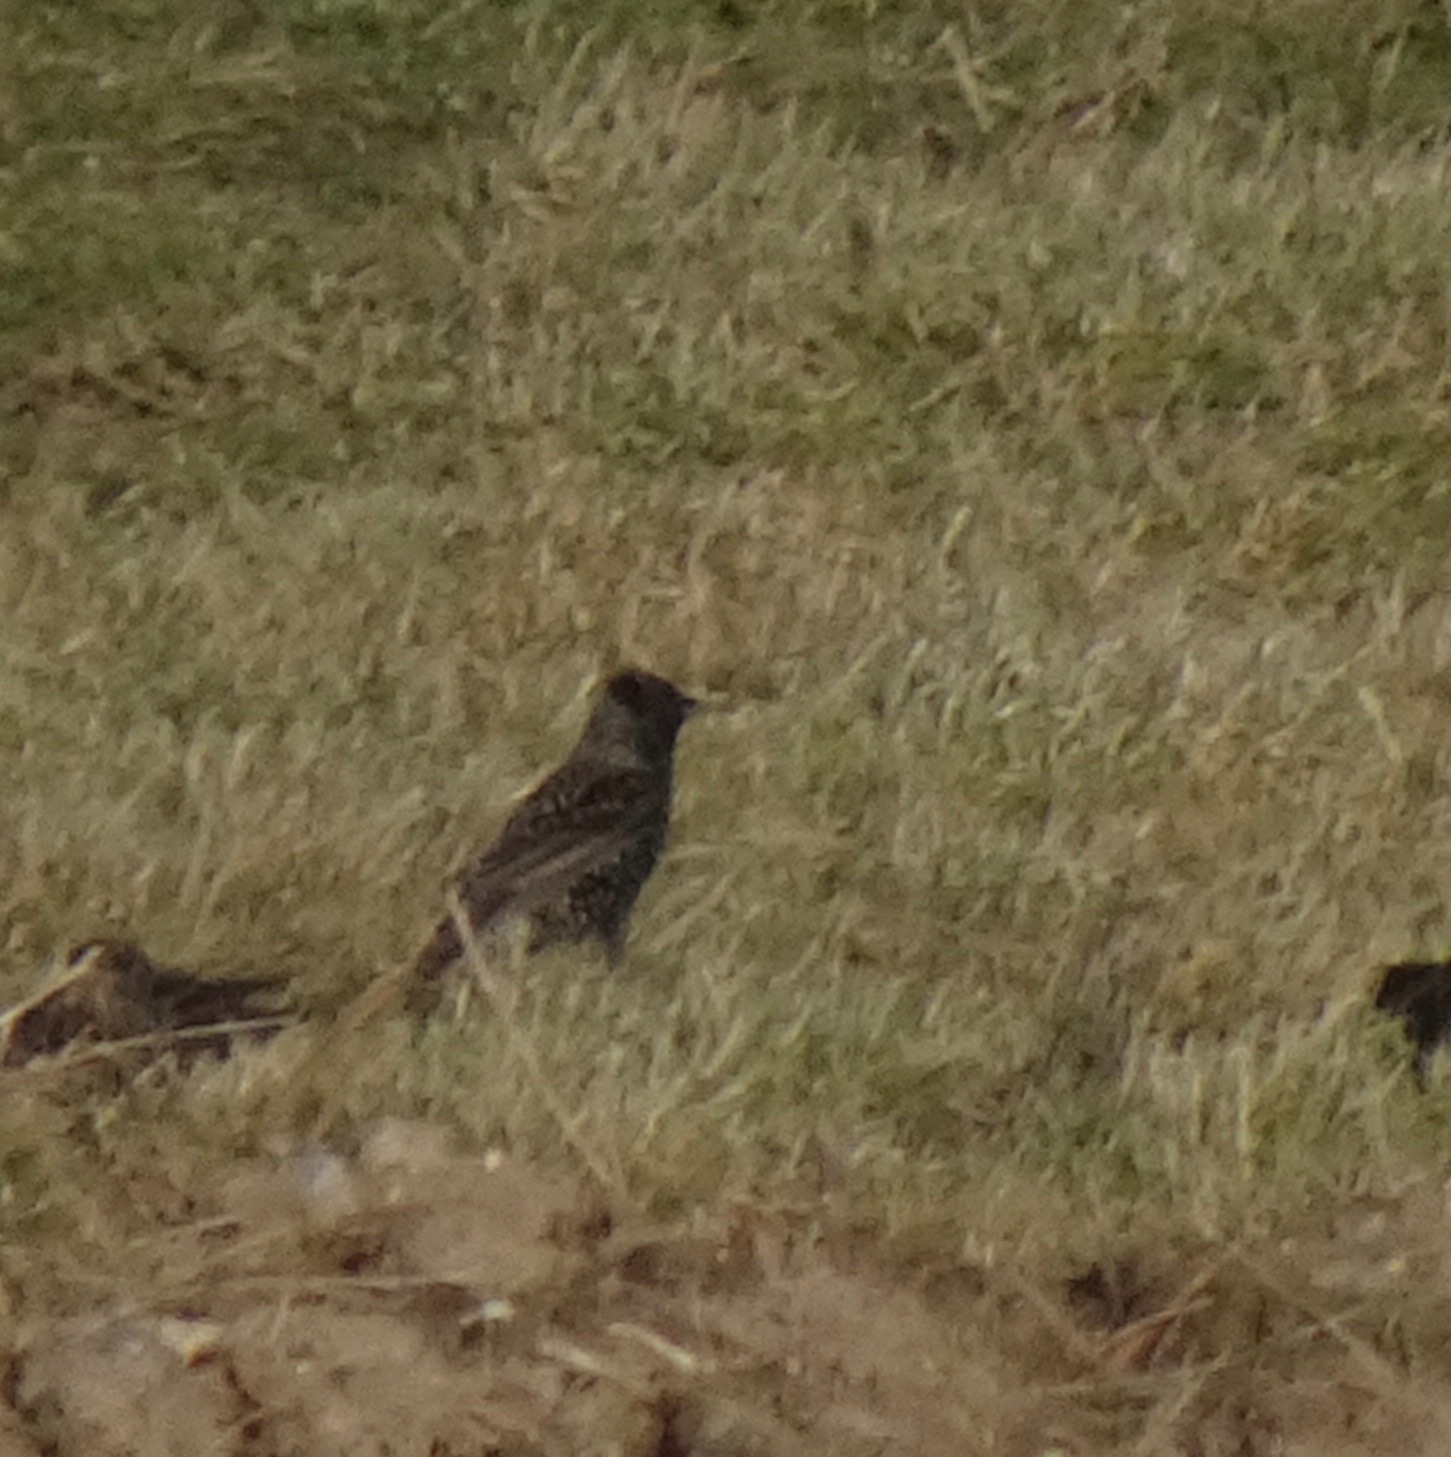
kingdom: Animalia
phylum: Chordata
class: Aves
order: Passeriformes
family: Sturnidae
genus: Sturnus
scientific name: Sturnus vulgaris
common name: Common starling
